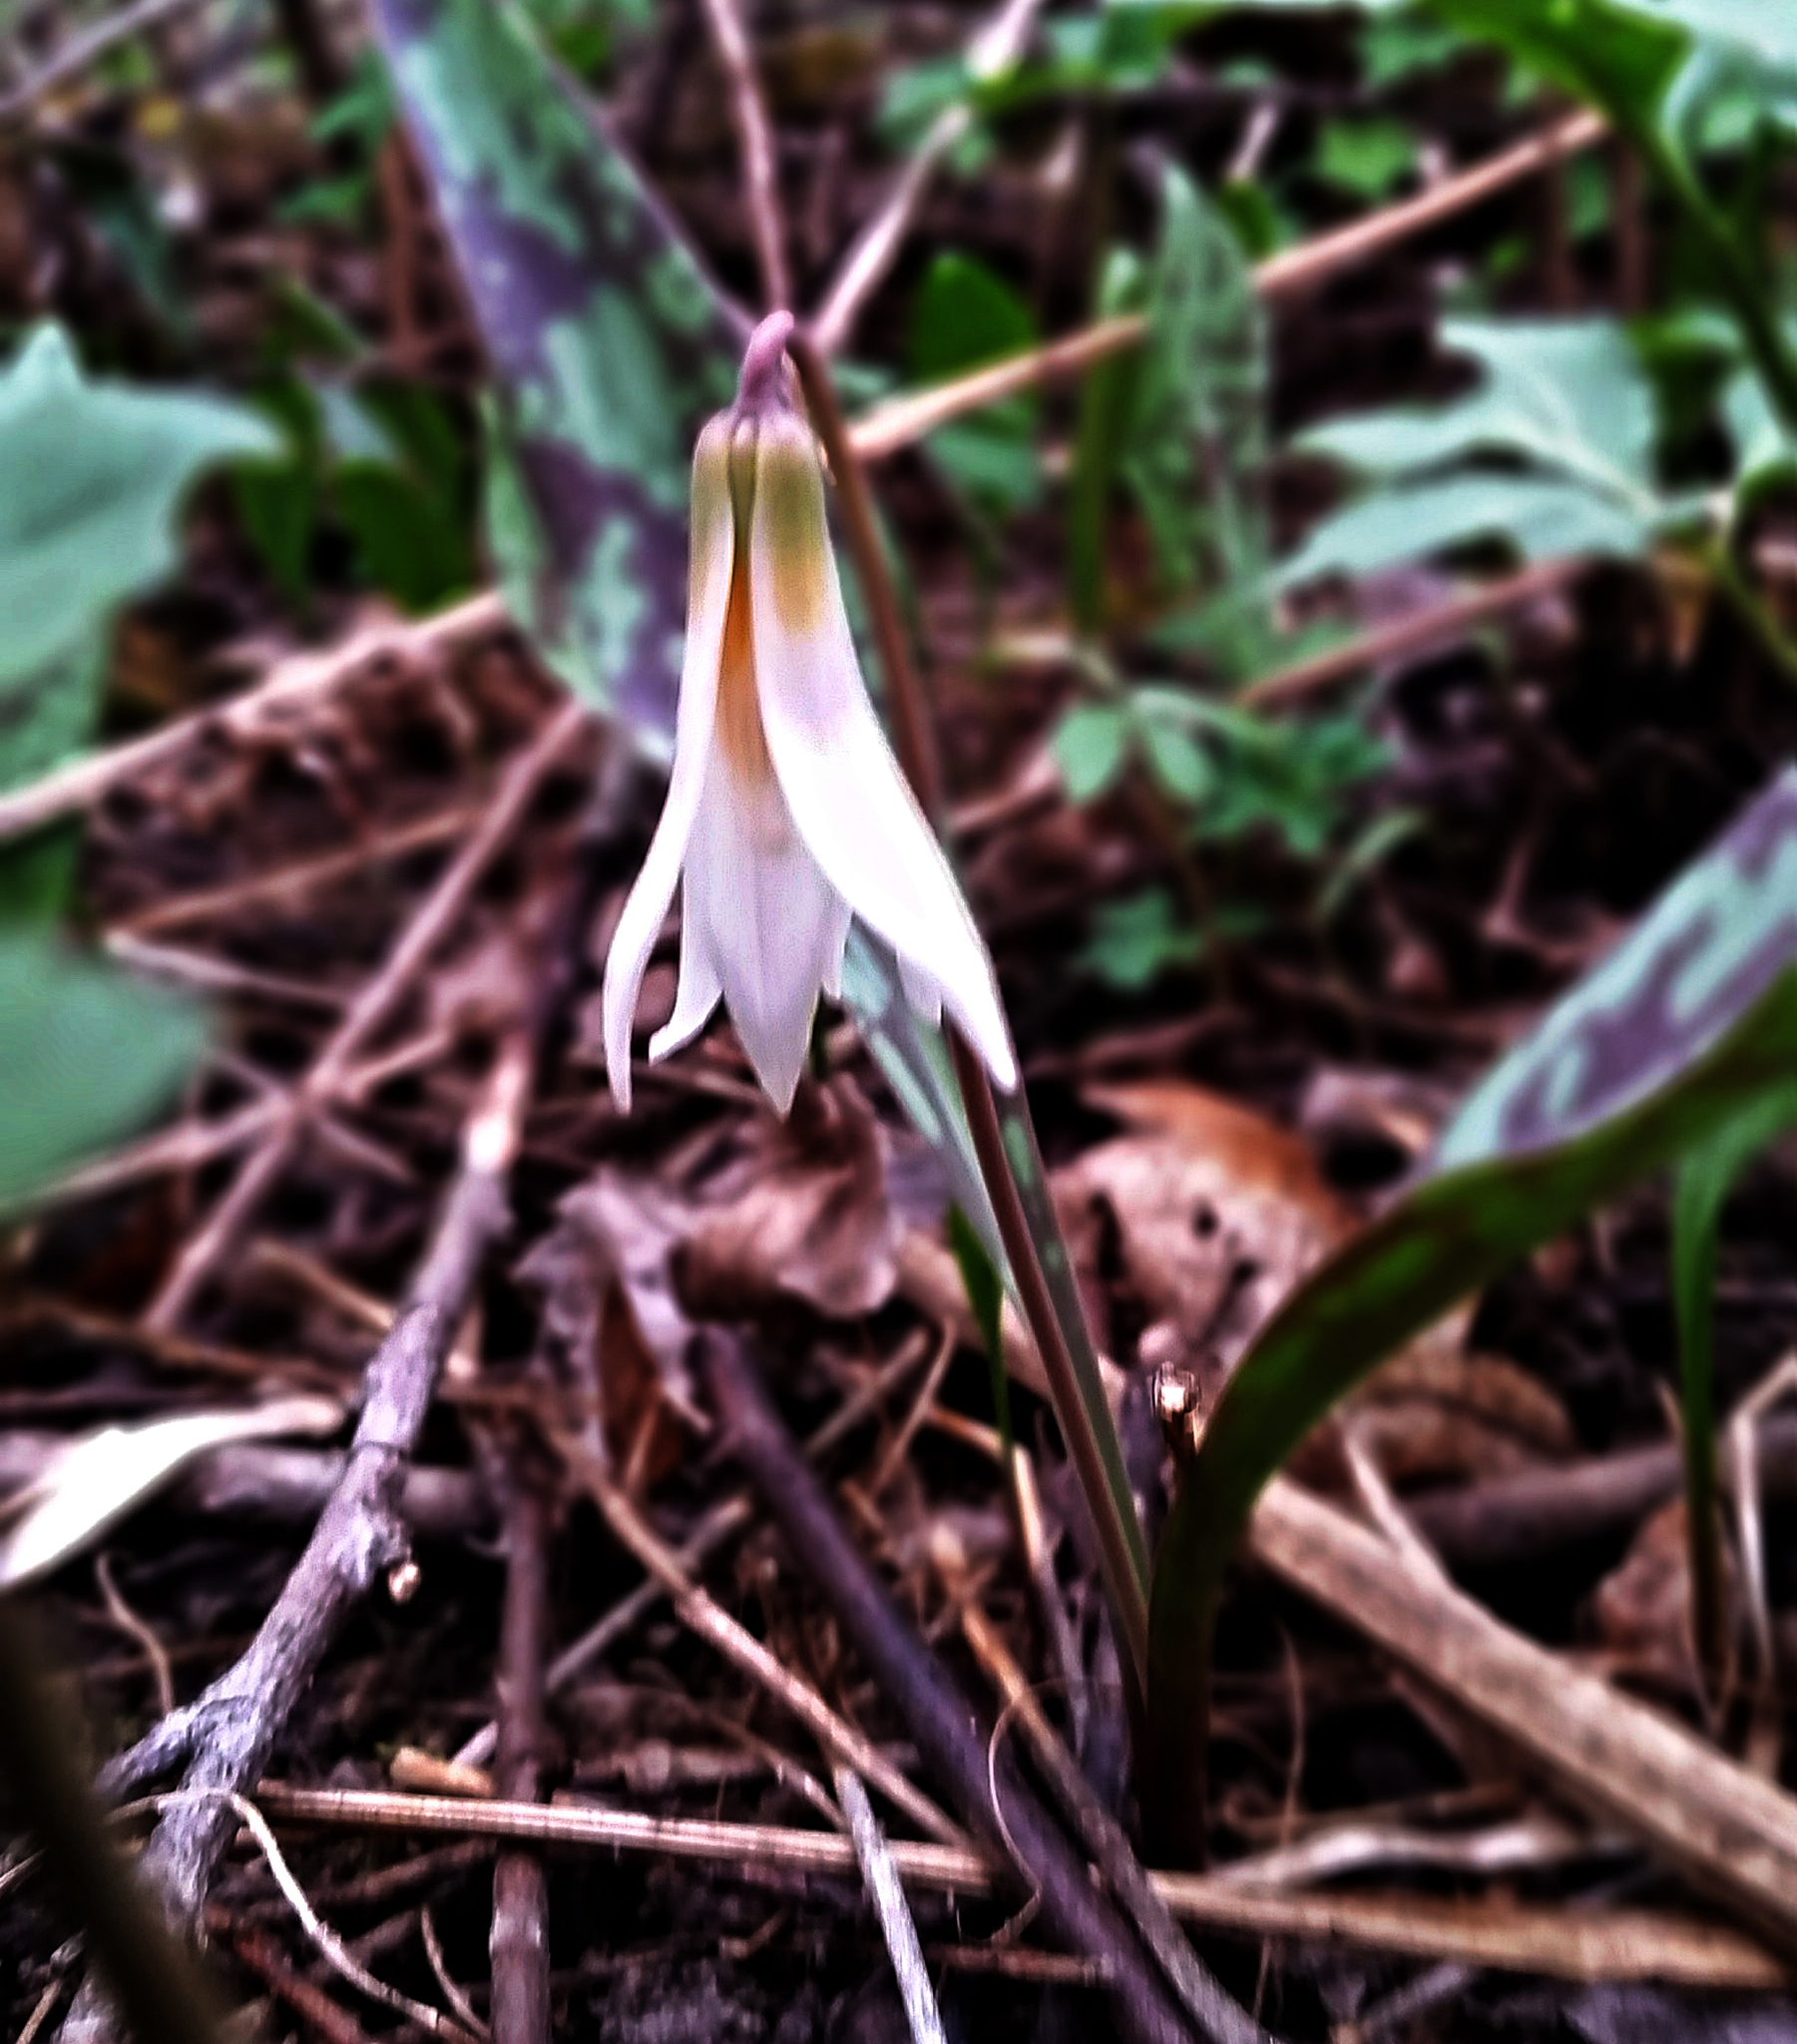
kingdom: Plantae
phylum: Tracheophyta
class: Liliopsida
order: Liliales
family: Liliaceae
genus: Erythronium
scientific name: Erythronium albidum
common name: White trout-lily
